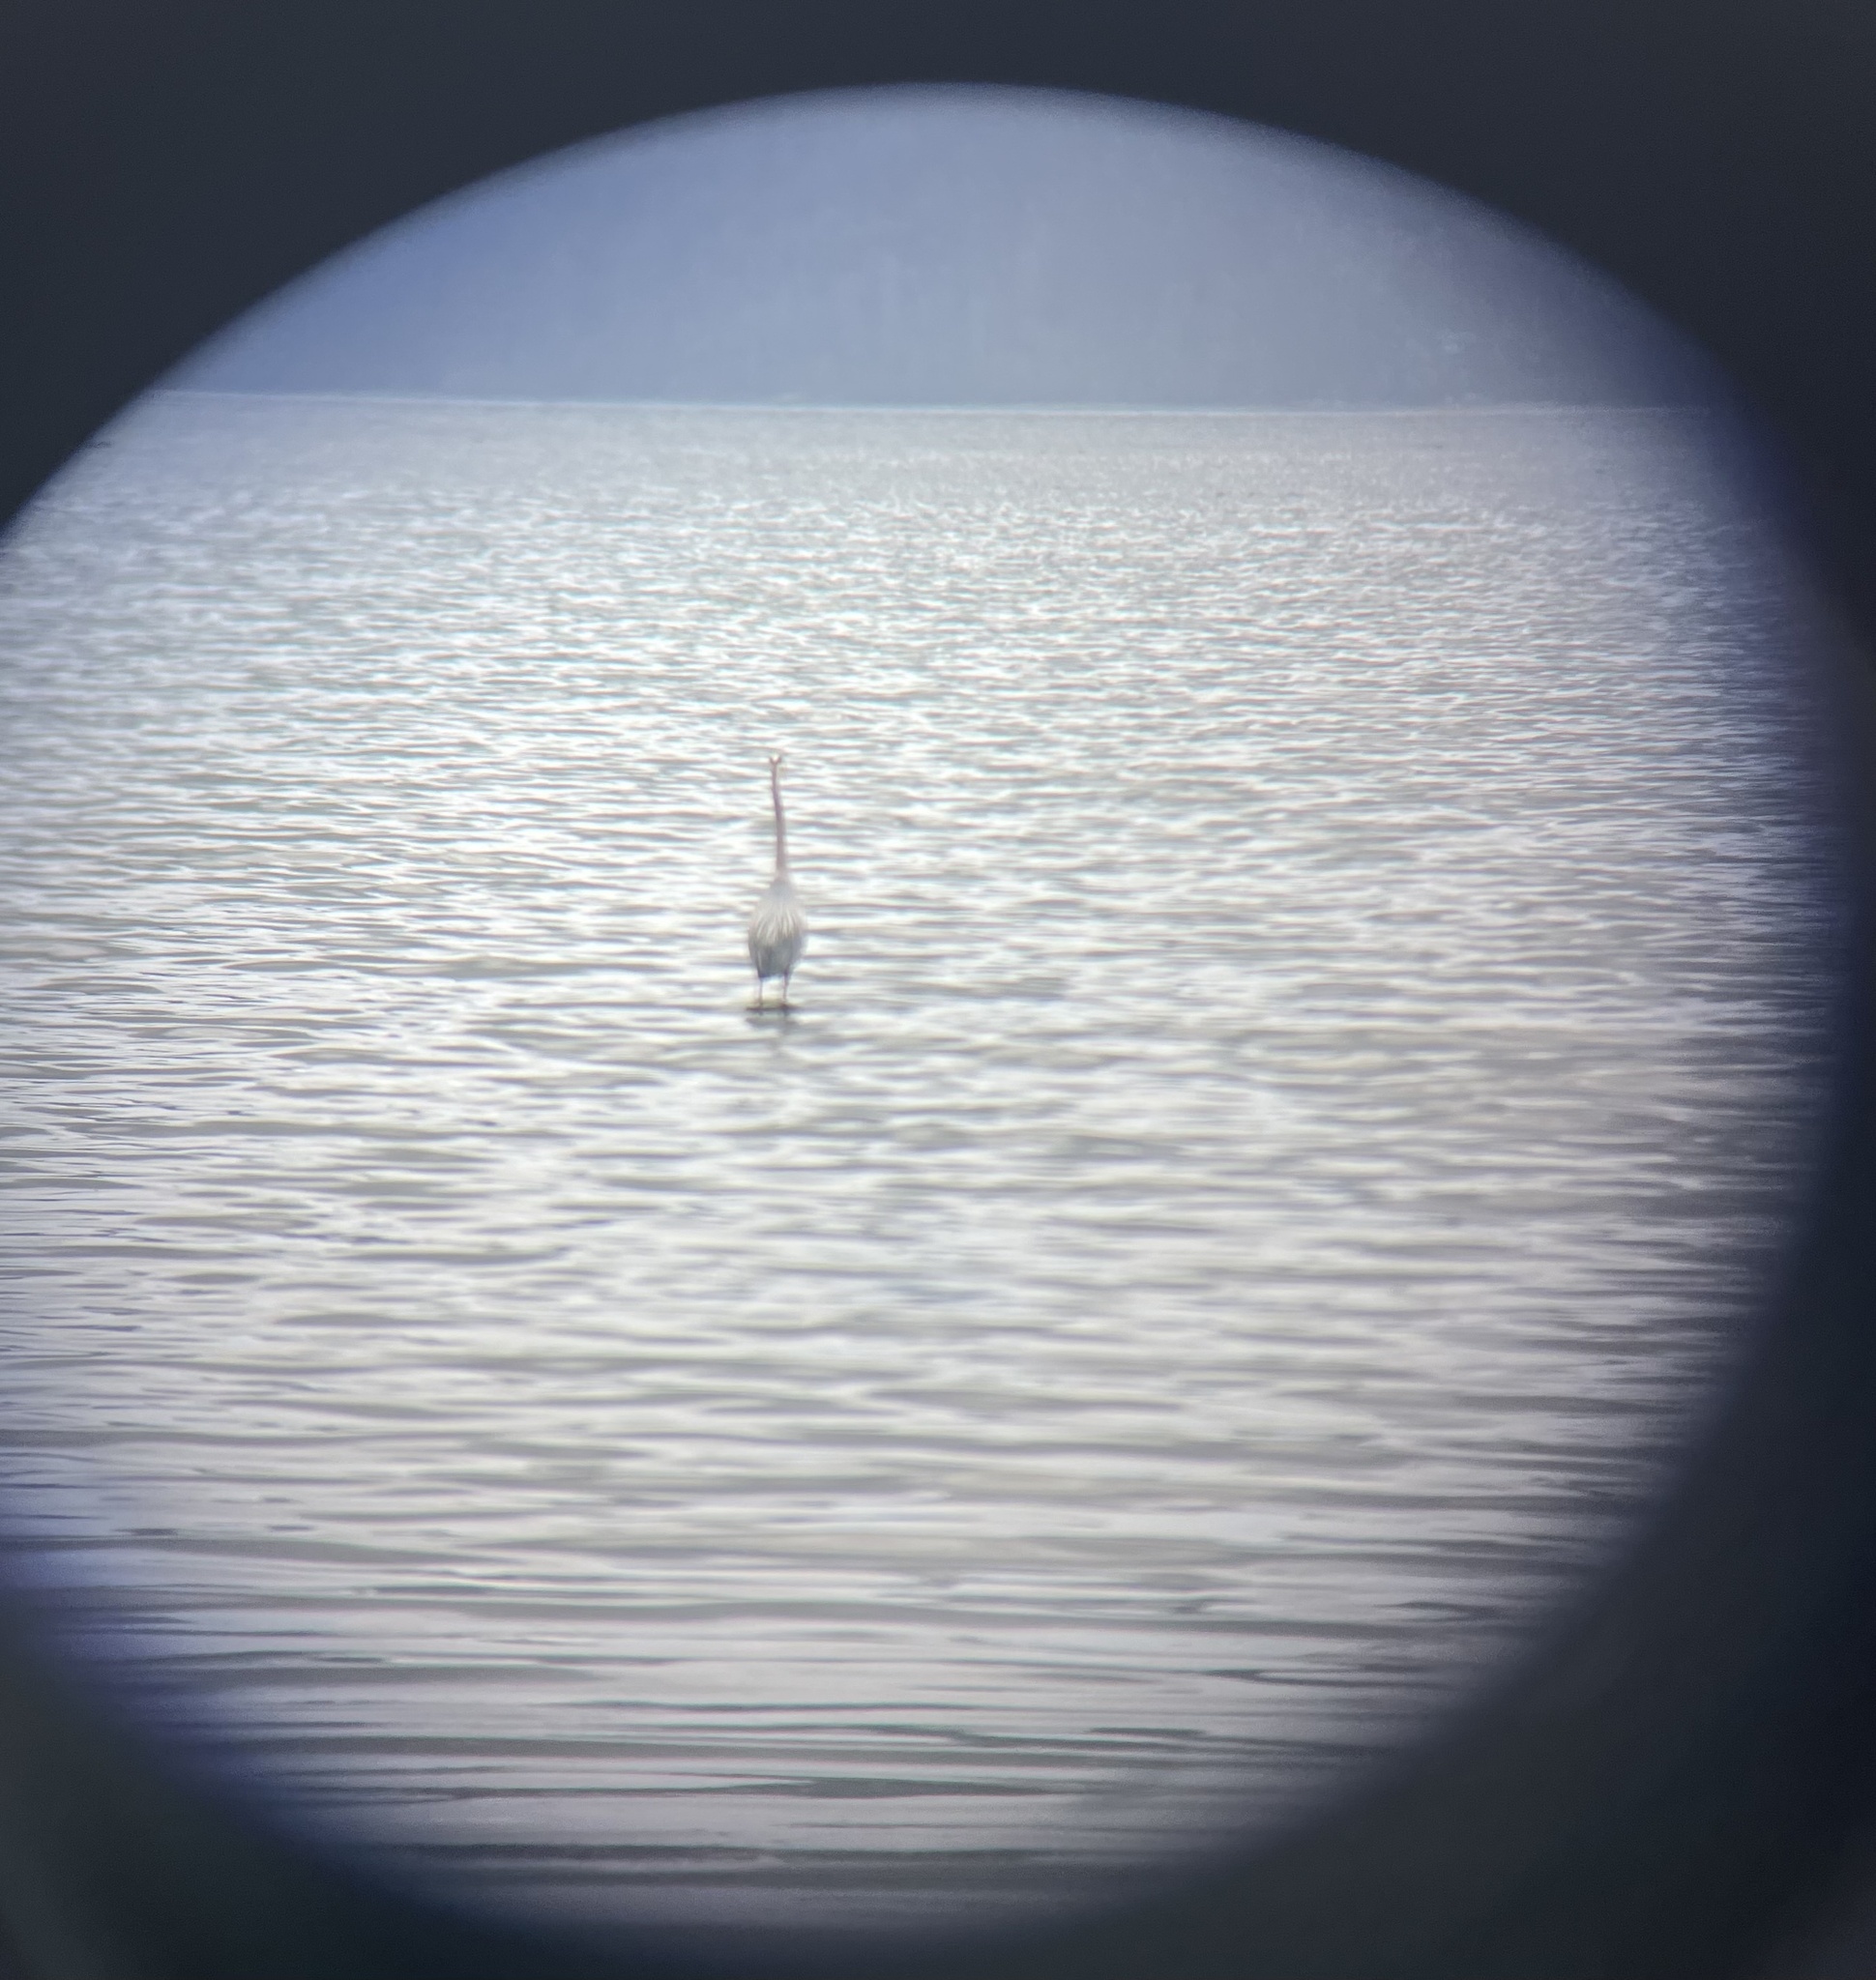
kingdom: Animalia
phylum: Chordata
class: Aves
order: Pelecaniformes
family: Ardeidae
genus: Ardea
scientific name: Ardea herodias
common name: Great blue heron
